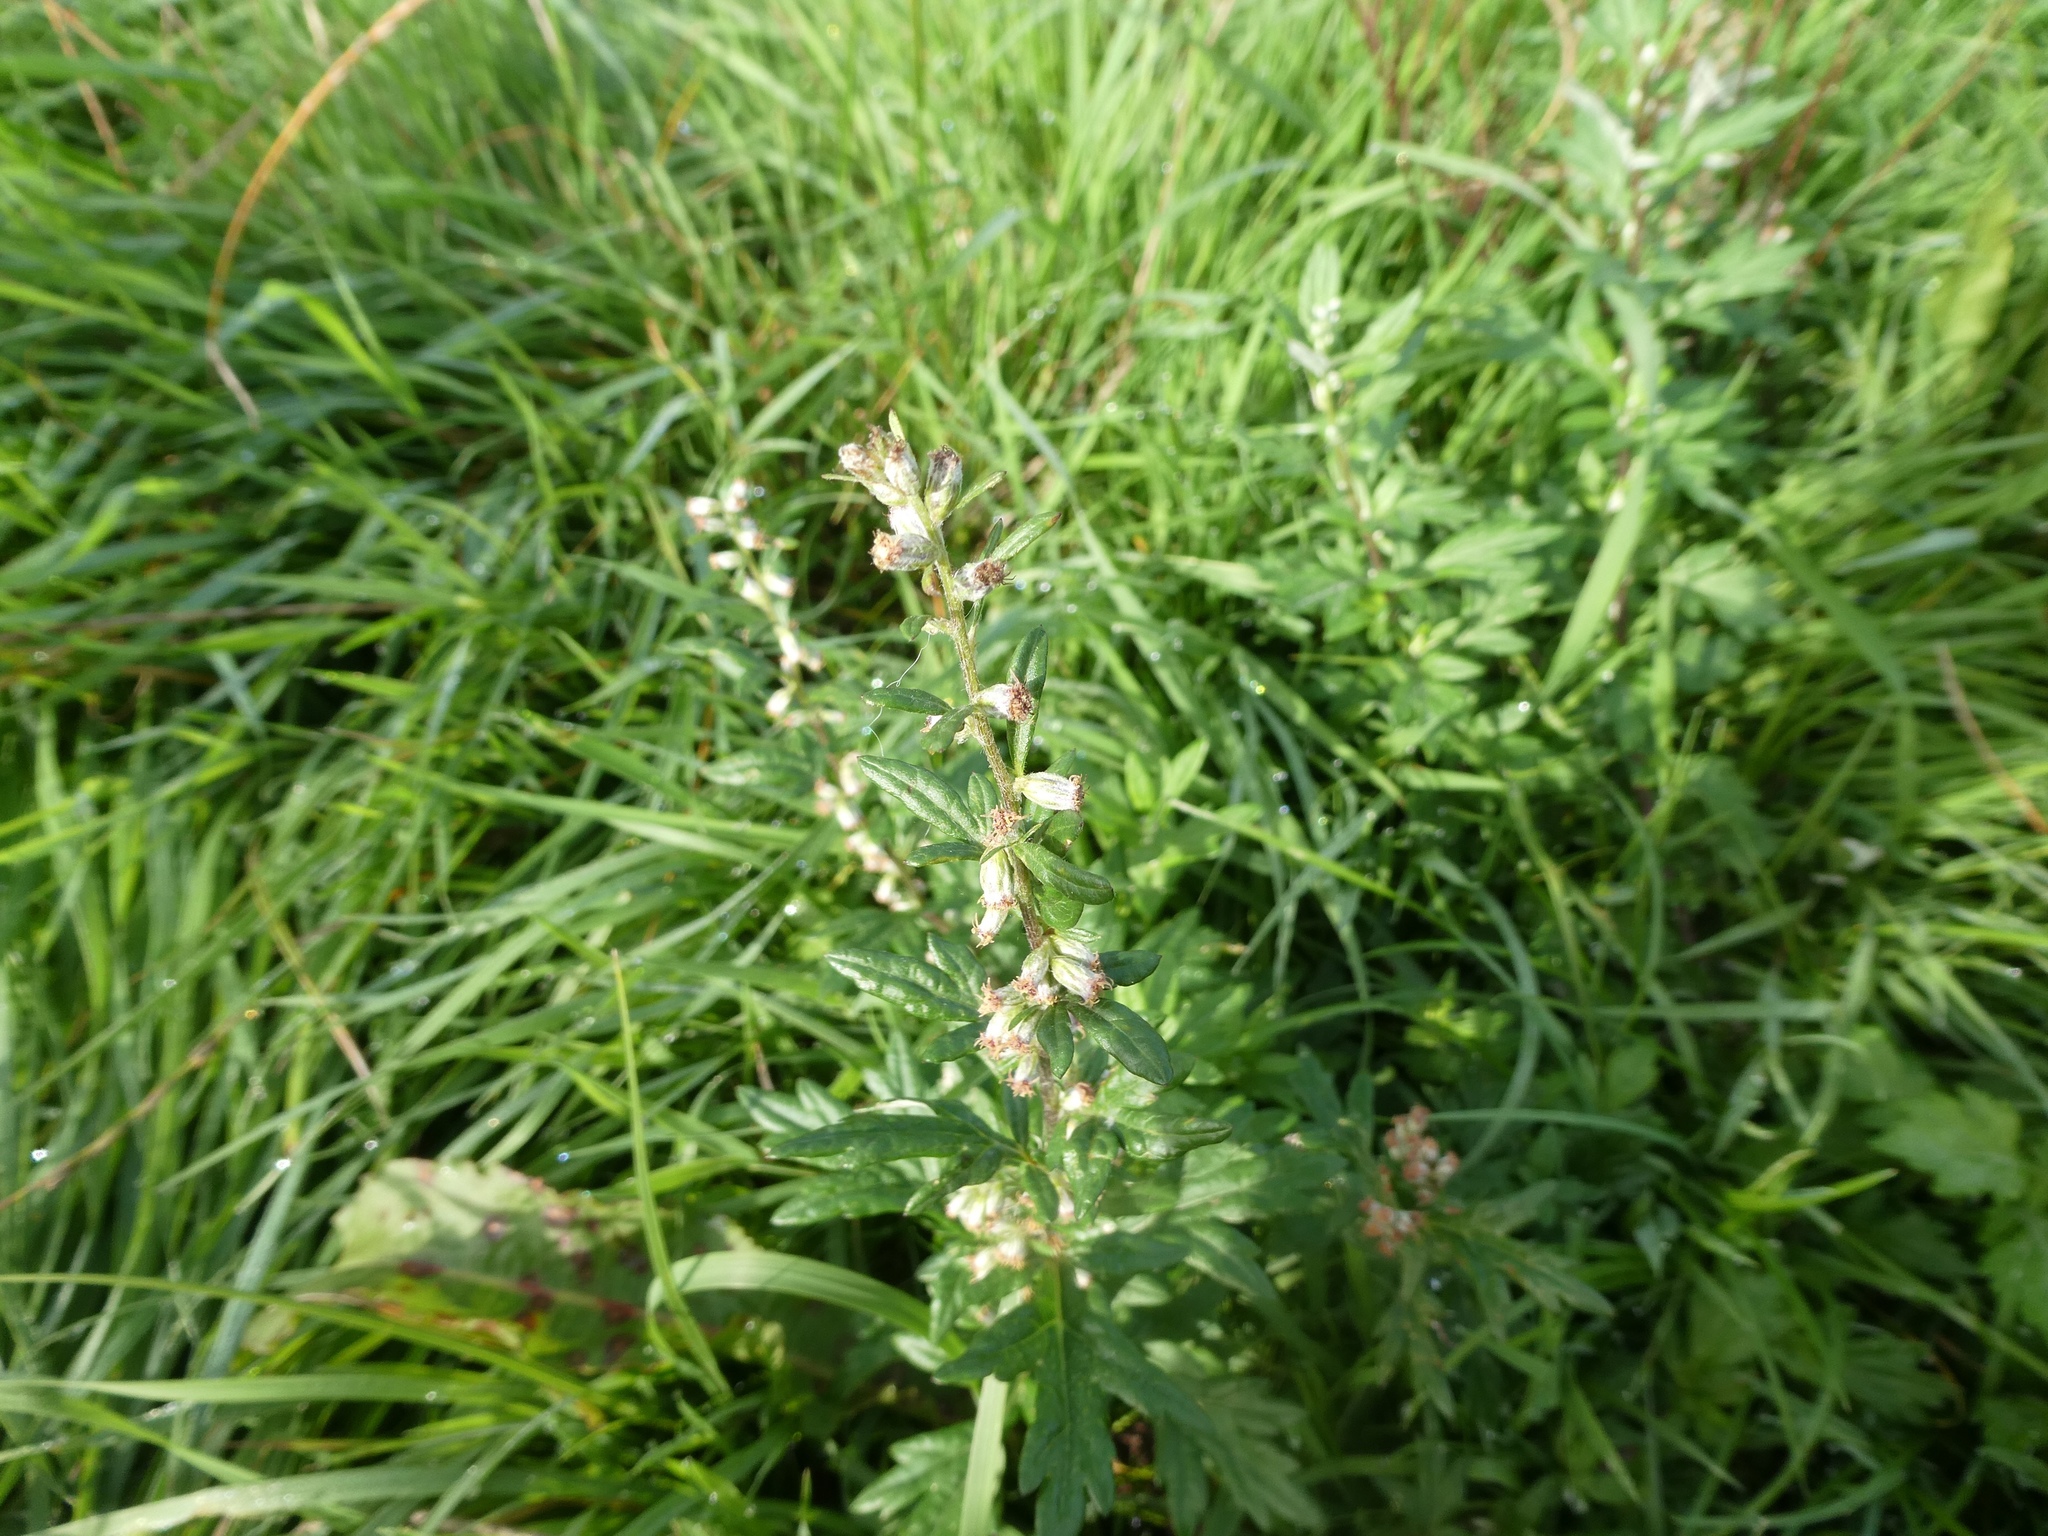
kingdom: Plantae
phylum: Tracheophyta
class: Magnoliopsida
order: Asterales
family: Asteraceae
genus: Artemisia
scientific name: Artemisia vulgaris
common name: Mugwort
